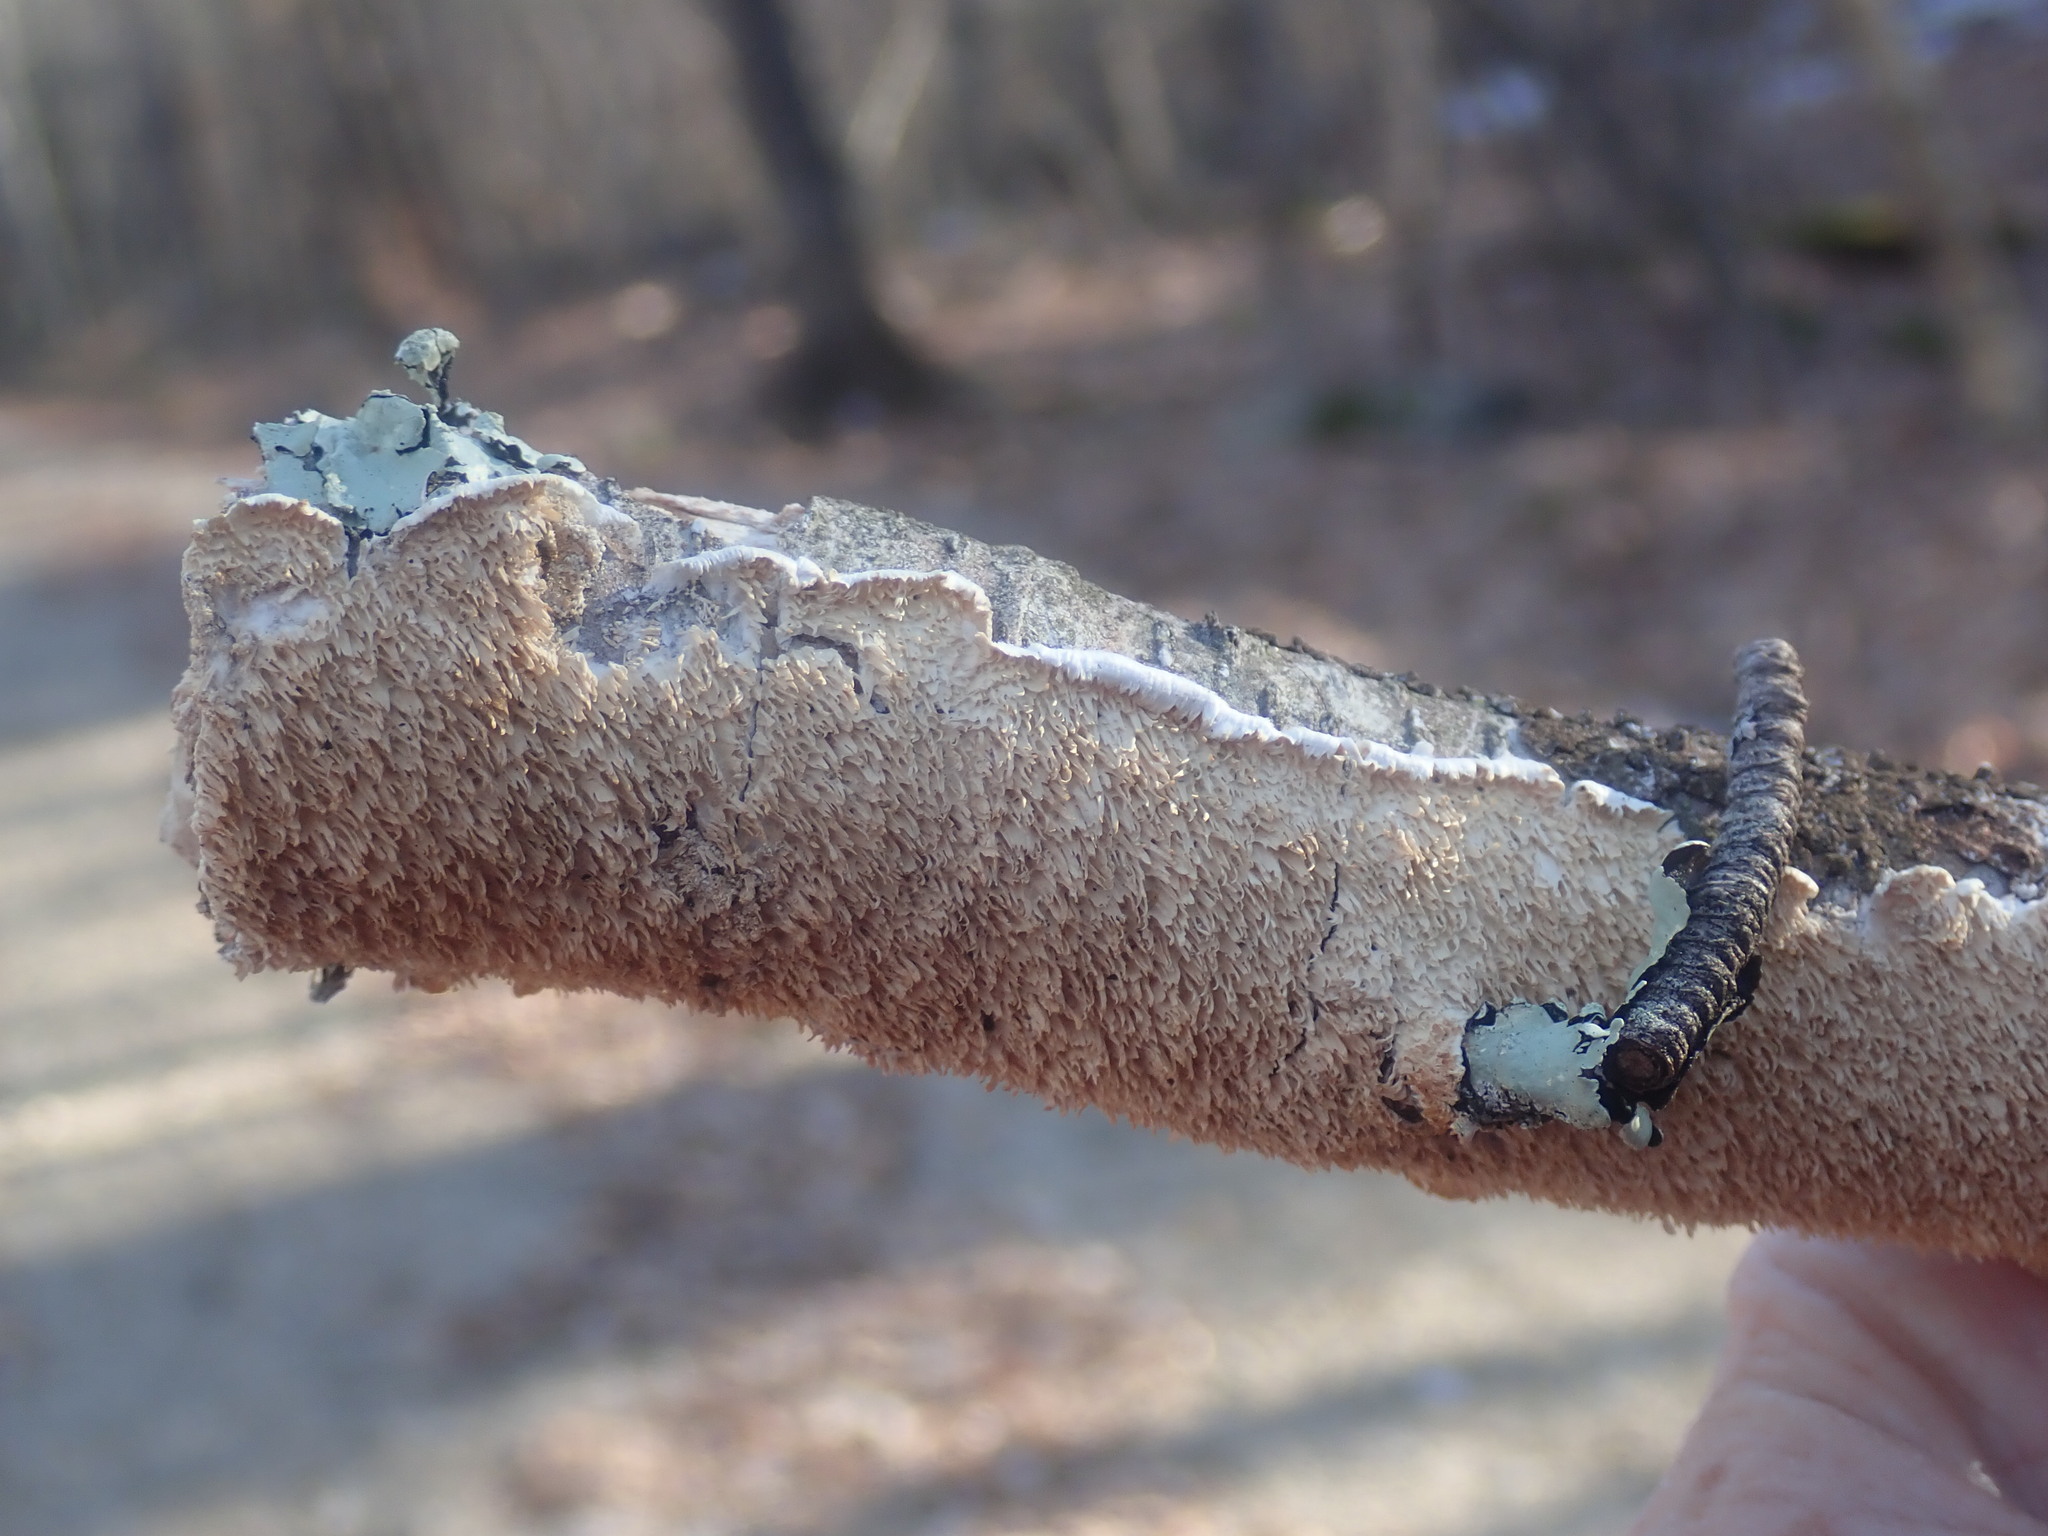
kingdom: Fungi
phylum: Basidiomycota
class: Agaricomycetes
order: Polyporales
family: Irpicaceae
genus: Irpex
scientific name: Irpex lacteus
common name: Milk-white toothed polypore
